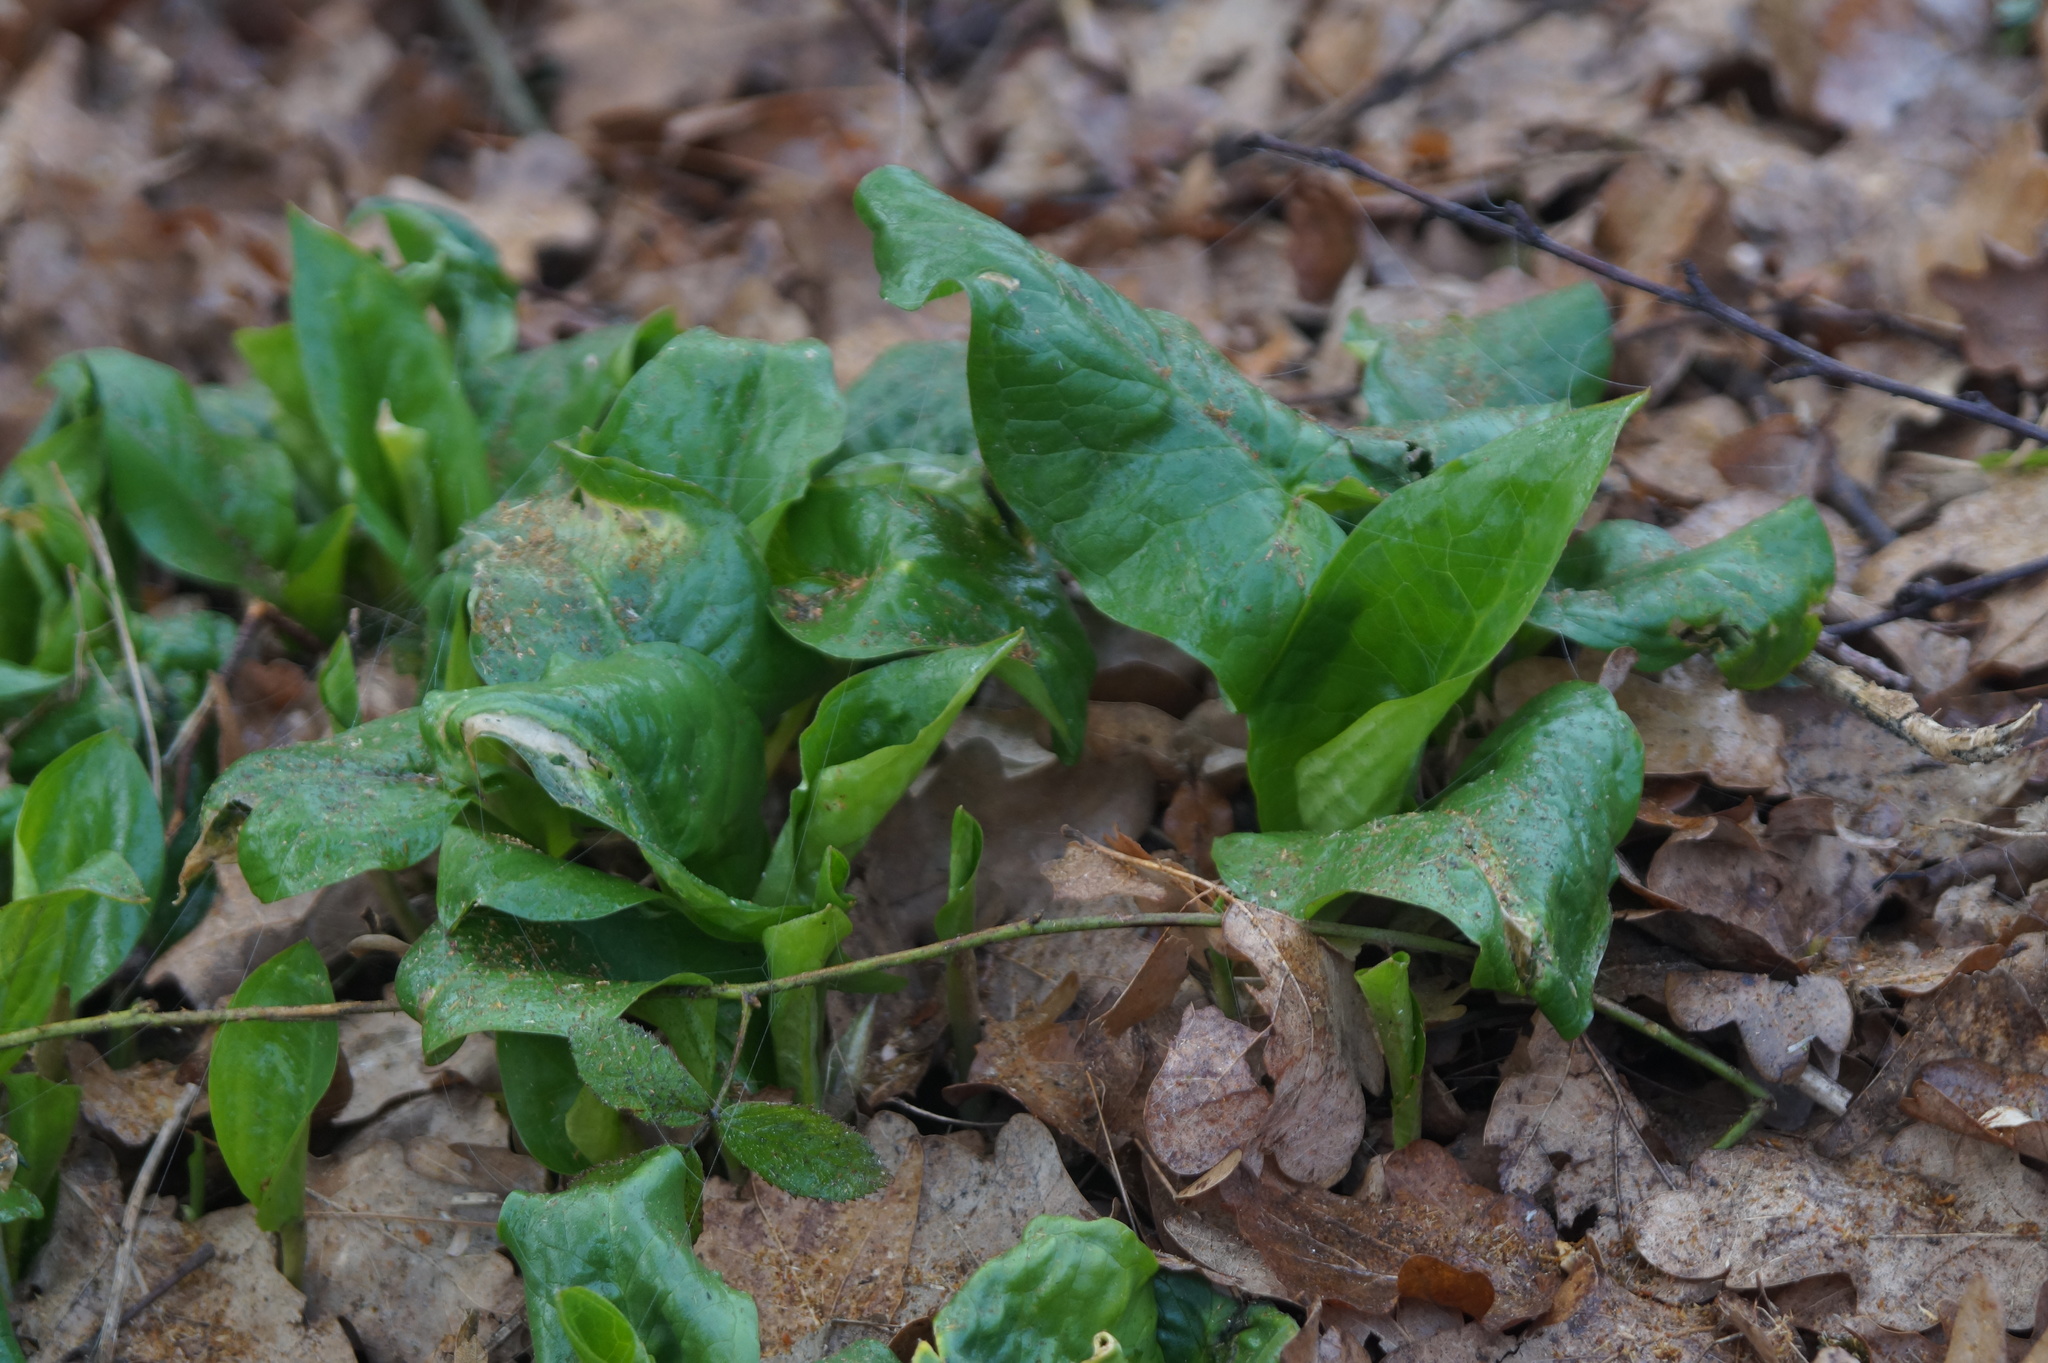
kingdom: Plantae
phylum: Tracheophyta
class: Liliopsida
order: Alismatales
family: Araceae
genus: Arum
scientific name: Arum maculatum
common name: Lords-and-ladies
